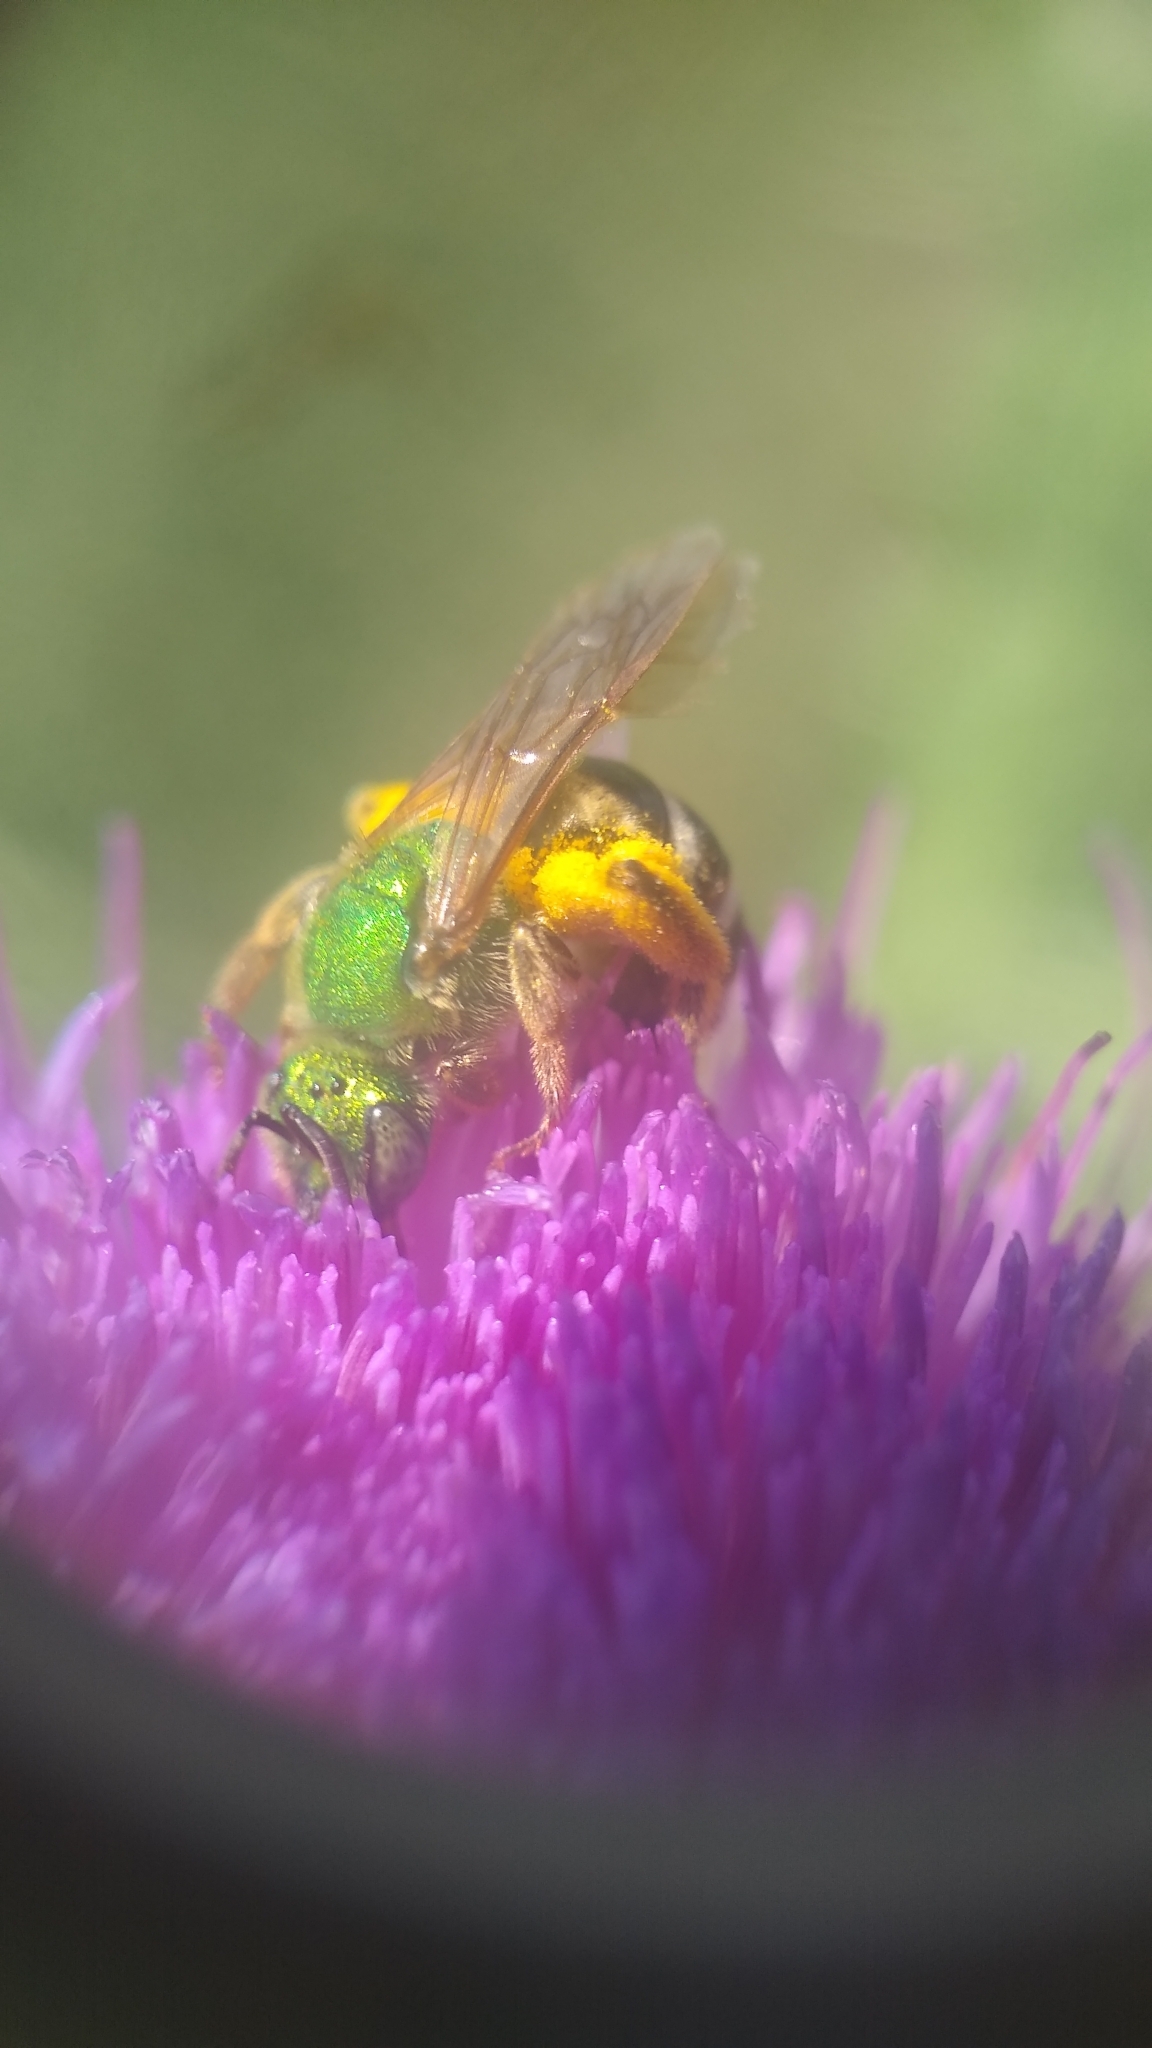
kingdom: Animalia
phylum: Arthropoda
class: Insecta
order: Hymenoptera
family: Halictidae
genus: Agapostemon
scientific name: Agapostemon virescens
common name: Bicolored striped sweat bee
